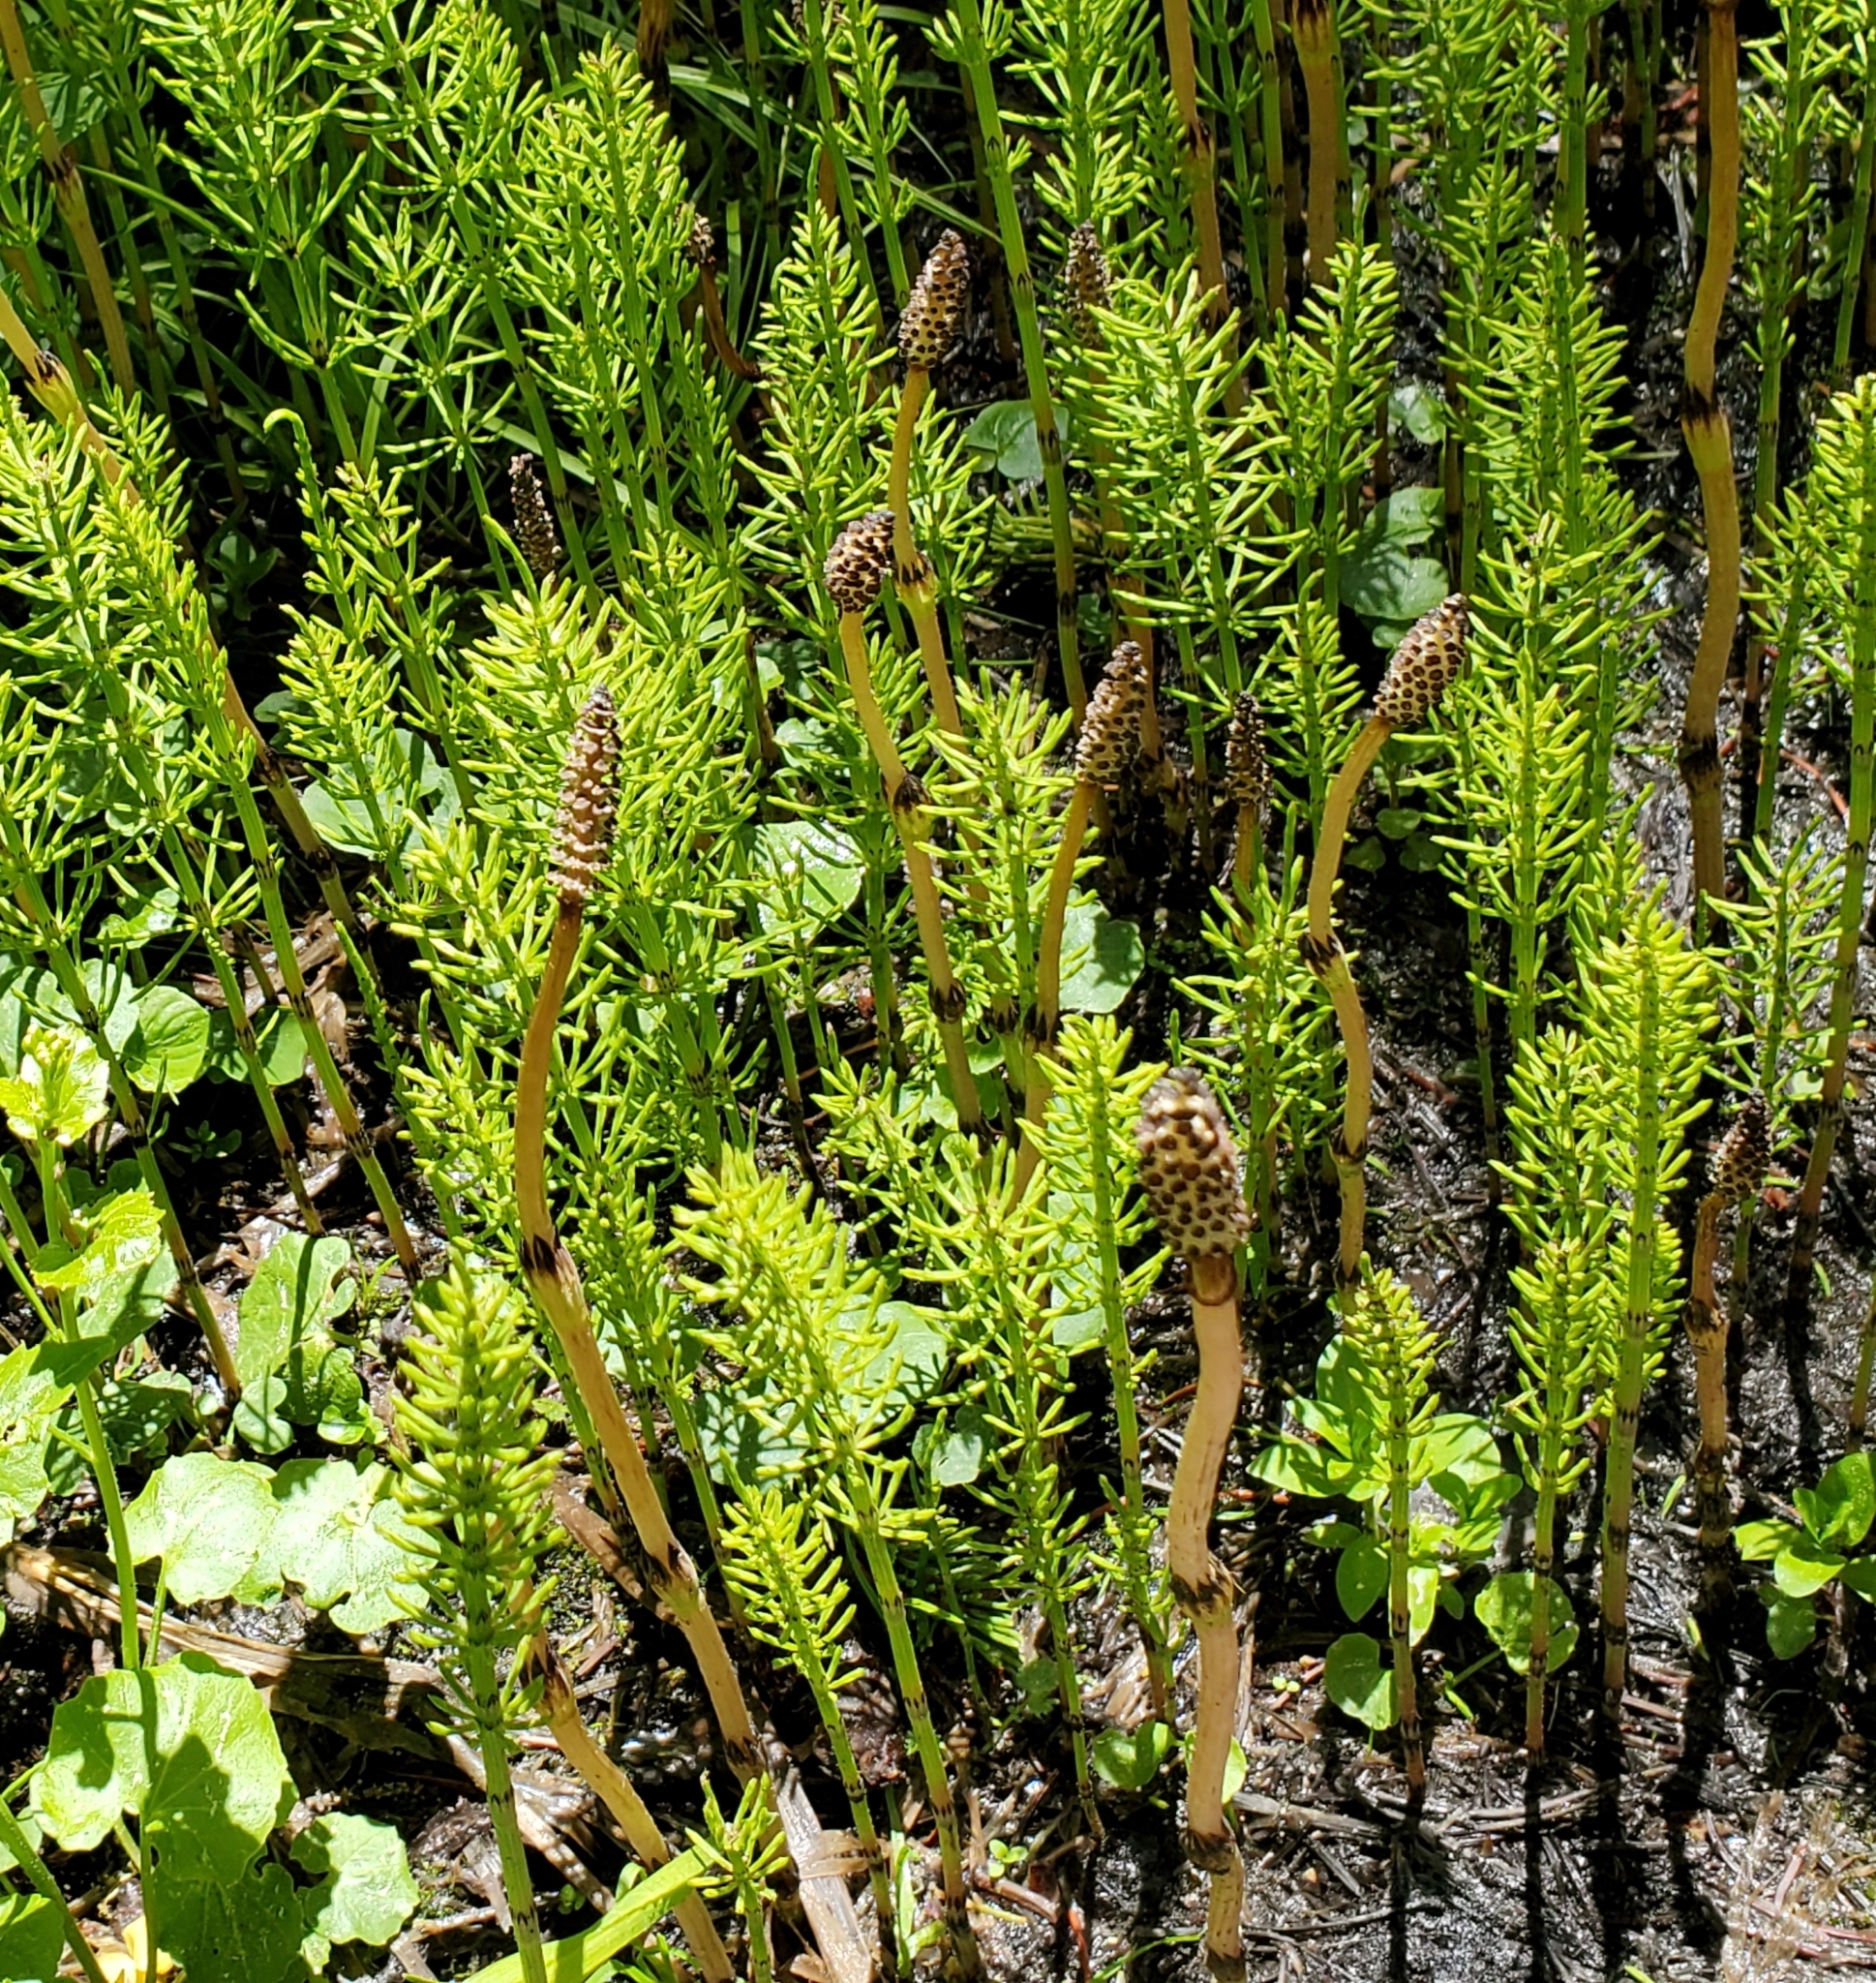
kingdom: Plantae
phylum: Tracheophyta
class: Polypodiopsida
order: Equisetales
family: Equisetaceae
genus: Equisetum
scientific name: Equisetum arvense
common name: Field horsetail
